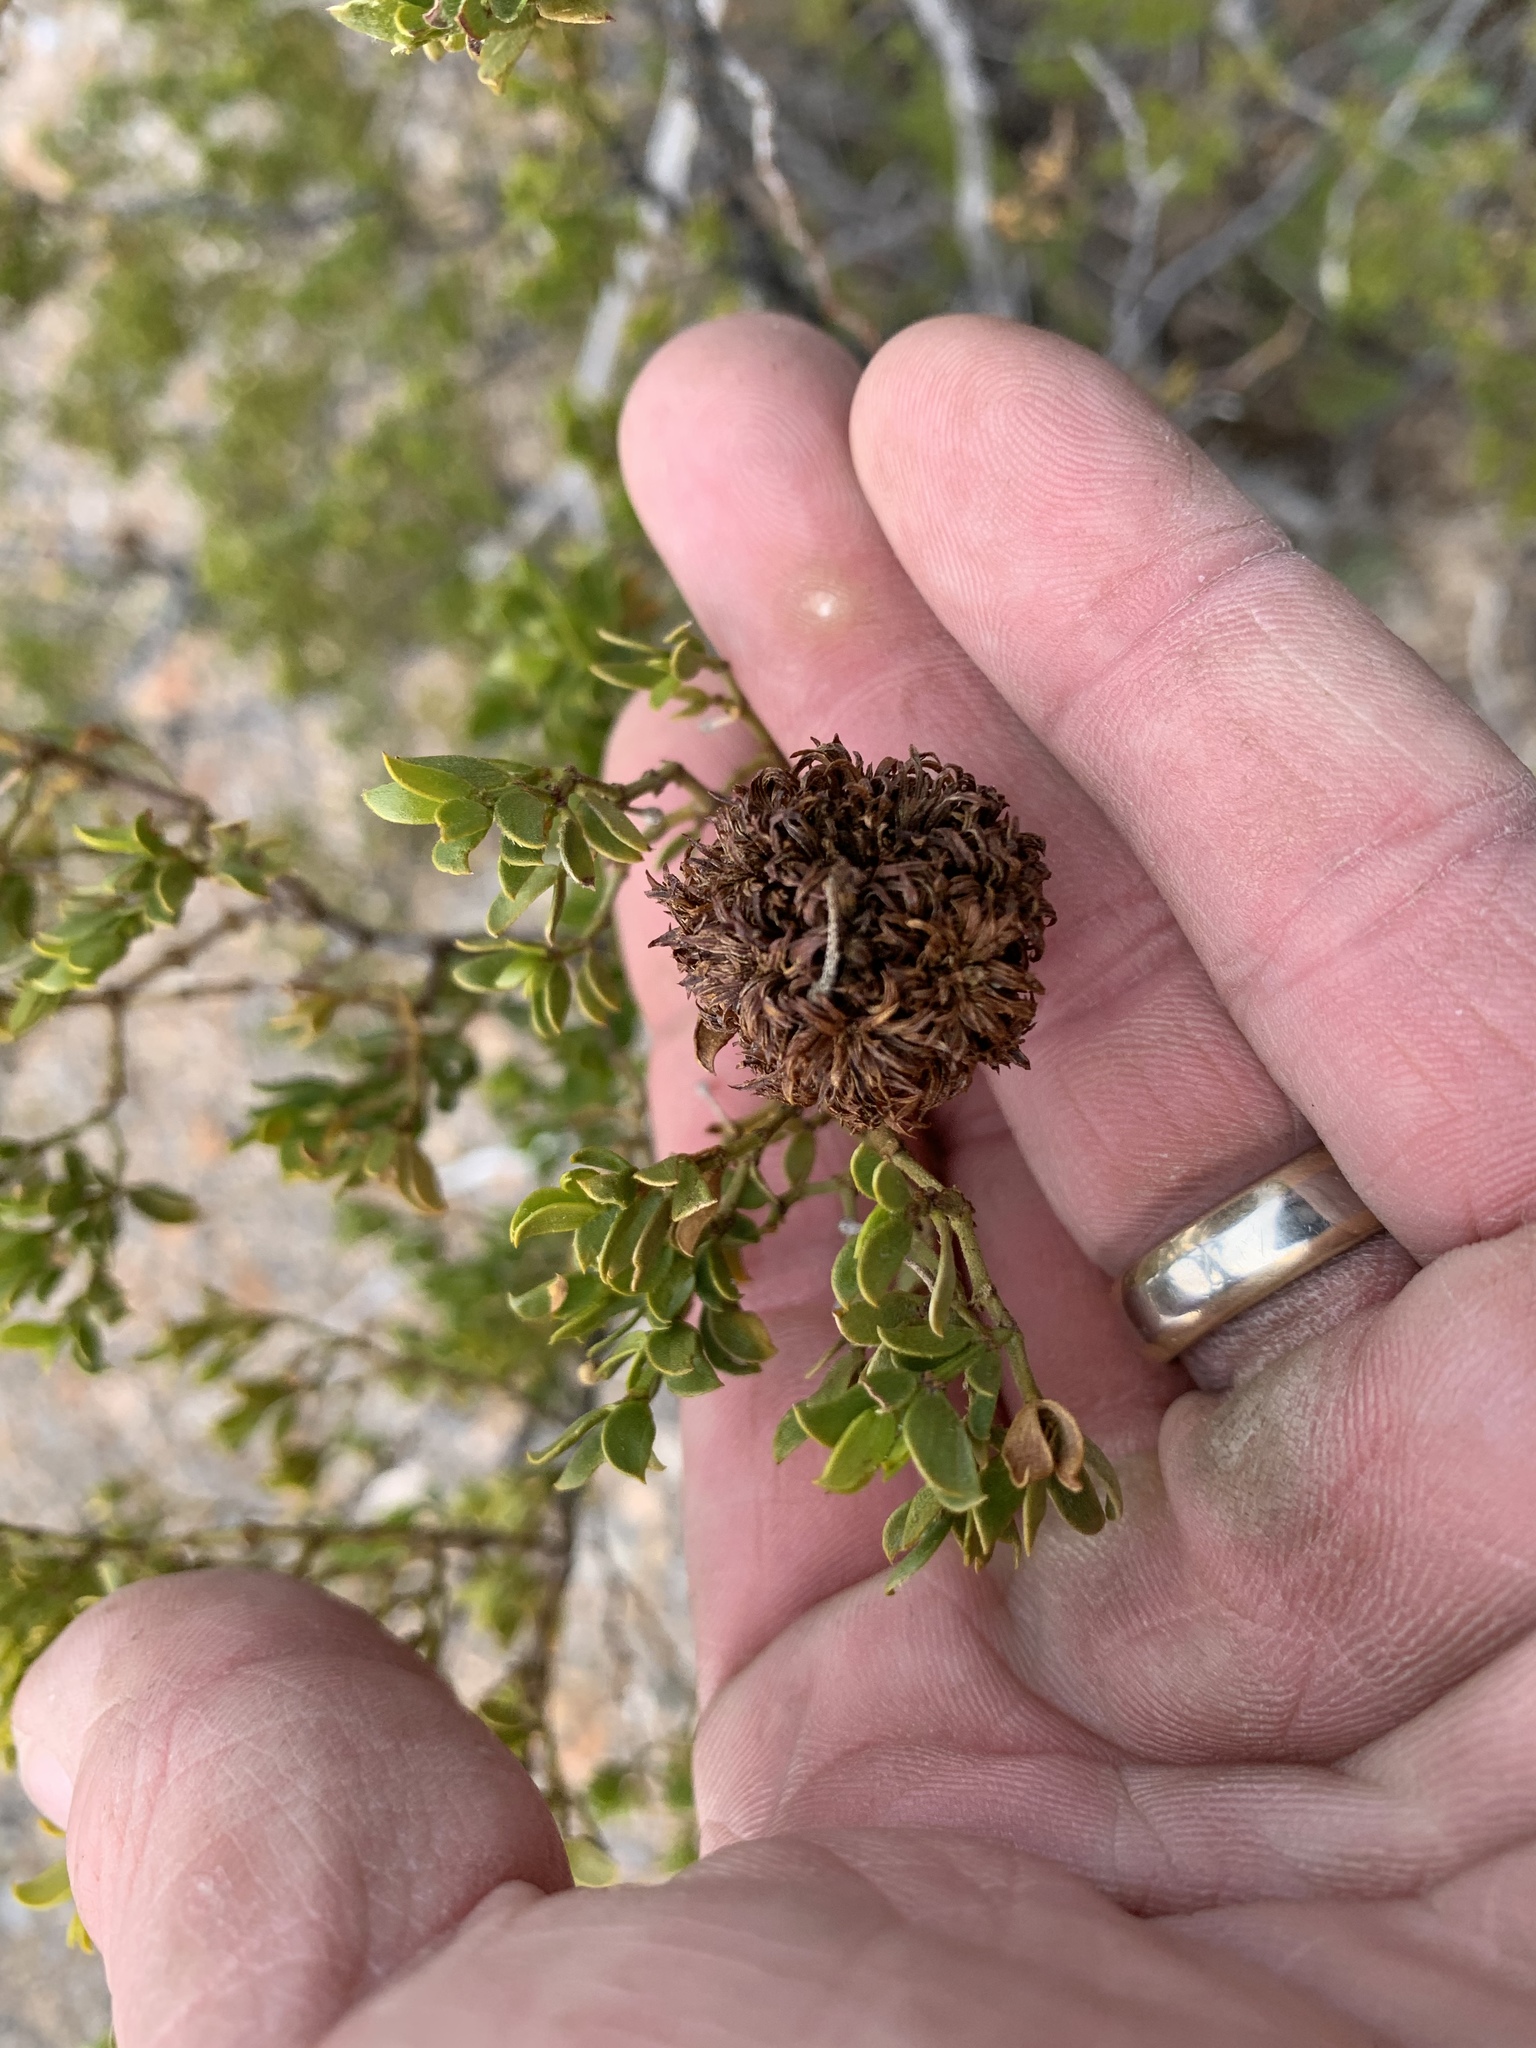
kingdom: Animalia
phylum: Arthropoda
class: Insecta
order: Diptera
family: Cecidomyiidae
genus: Asphondylia
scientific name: Asphondylia auripila
